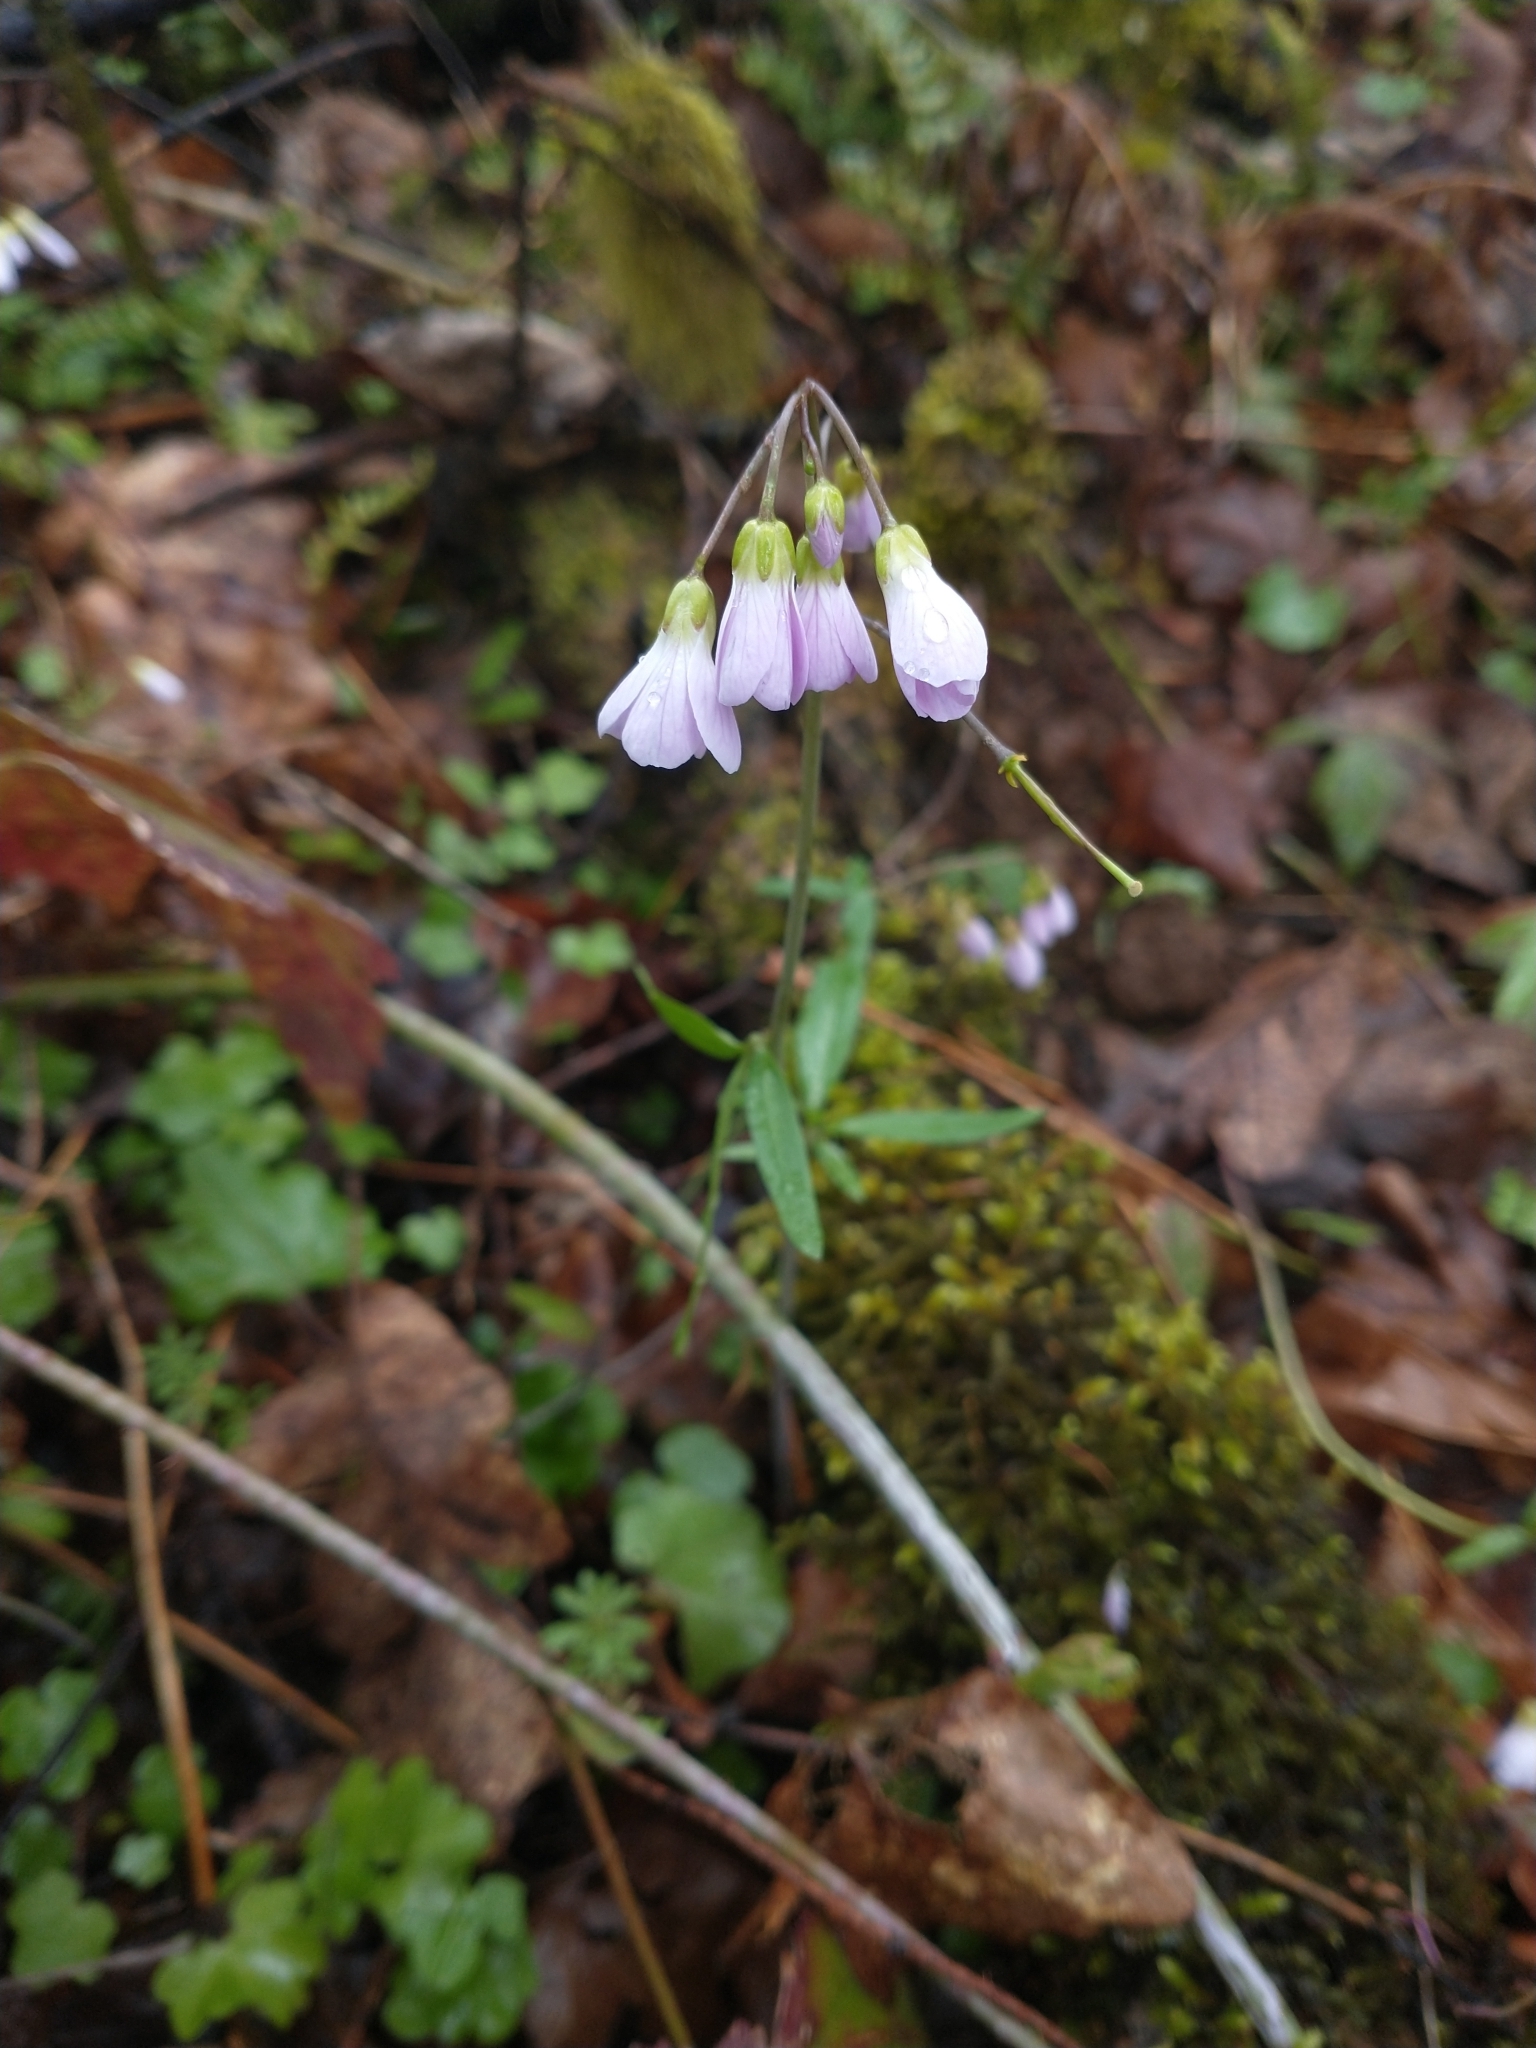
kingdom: Plantae
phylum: Tracheophyta
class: Magnoliopsida
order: Brassicales
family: Brassicaceae
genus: Cardamine
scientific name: Cardamine nuttallii
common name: Nuttall's toothwort
